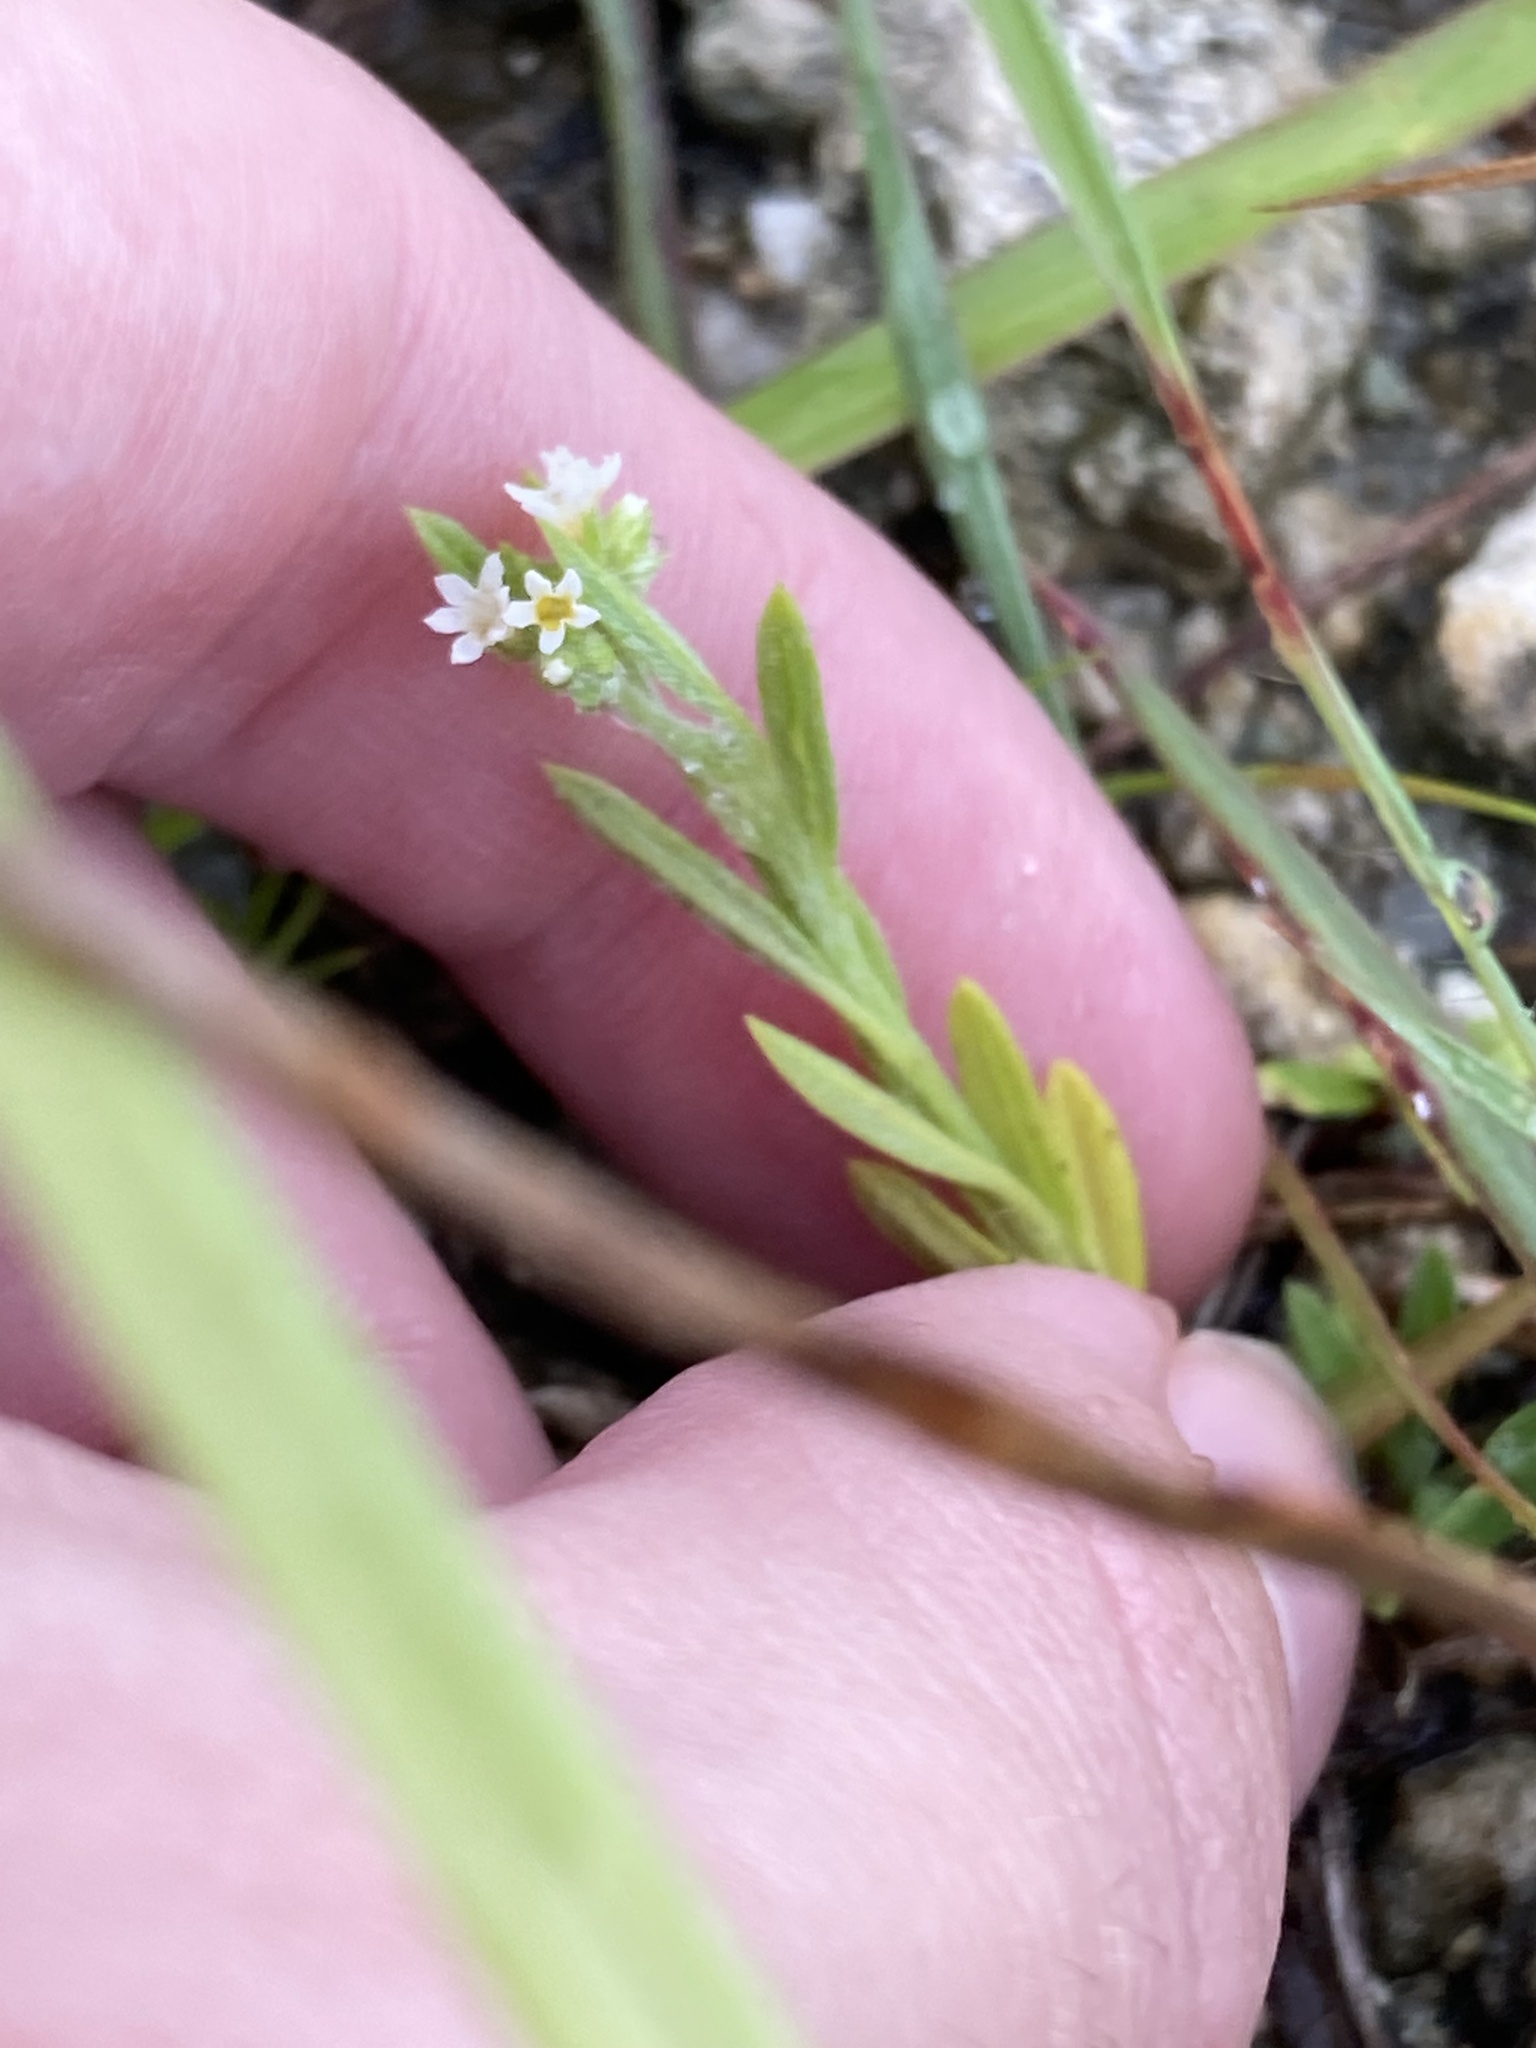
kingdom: Plantae
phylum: Tracheophyta
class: Magnoliopsida
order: Boraginales
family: Heliotropiaceae
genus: Euploca
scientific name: Euploca procumbens
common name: Fourspike heliotrope
